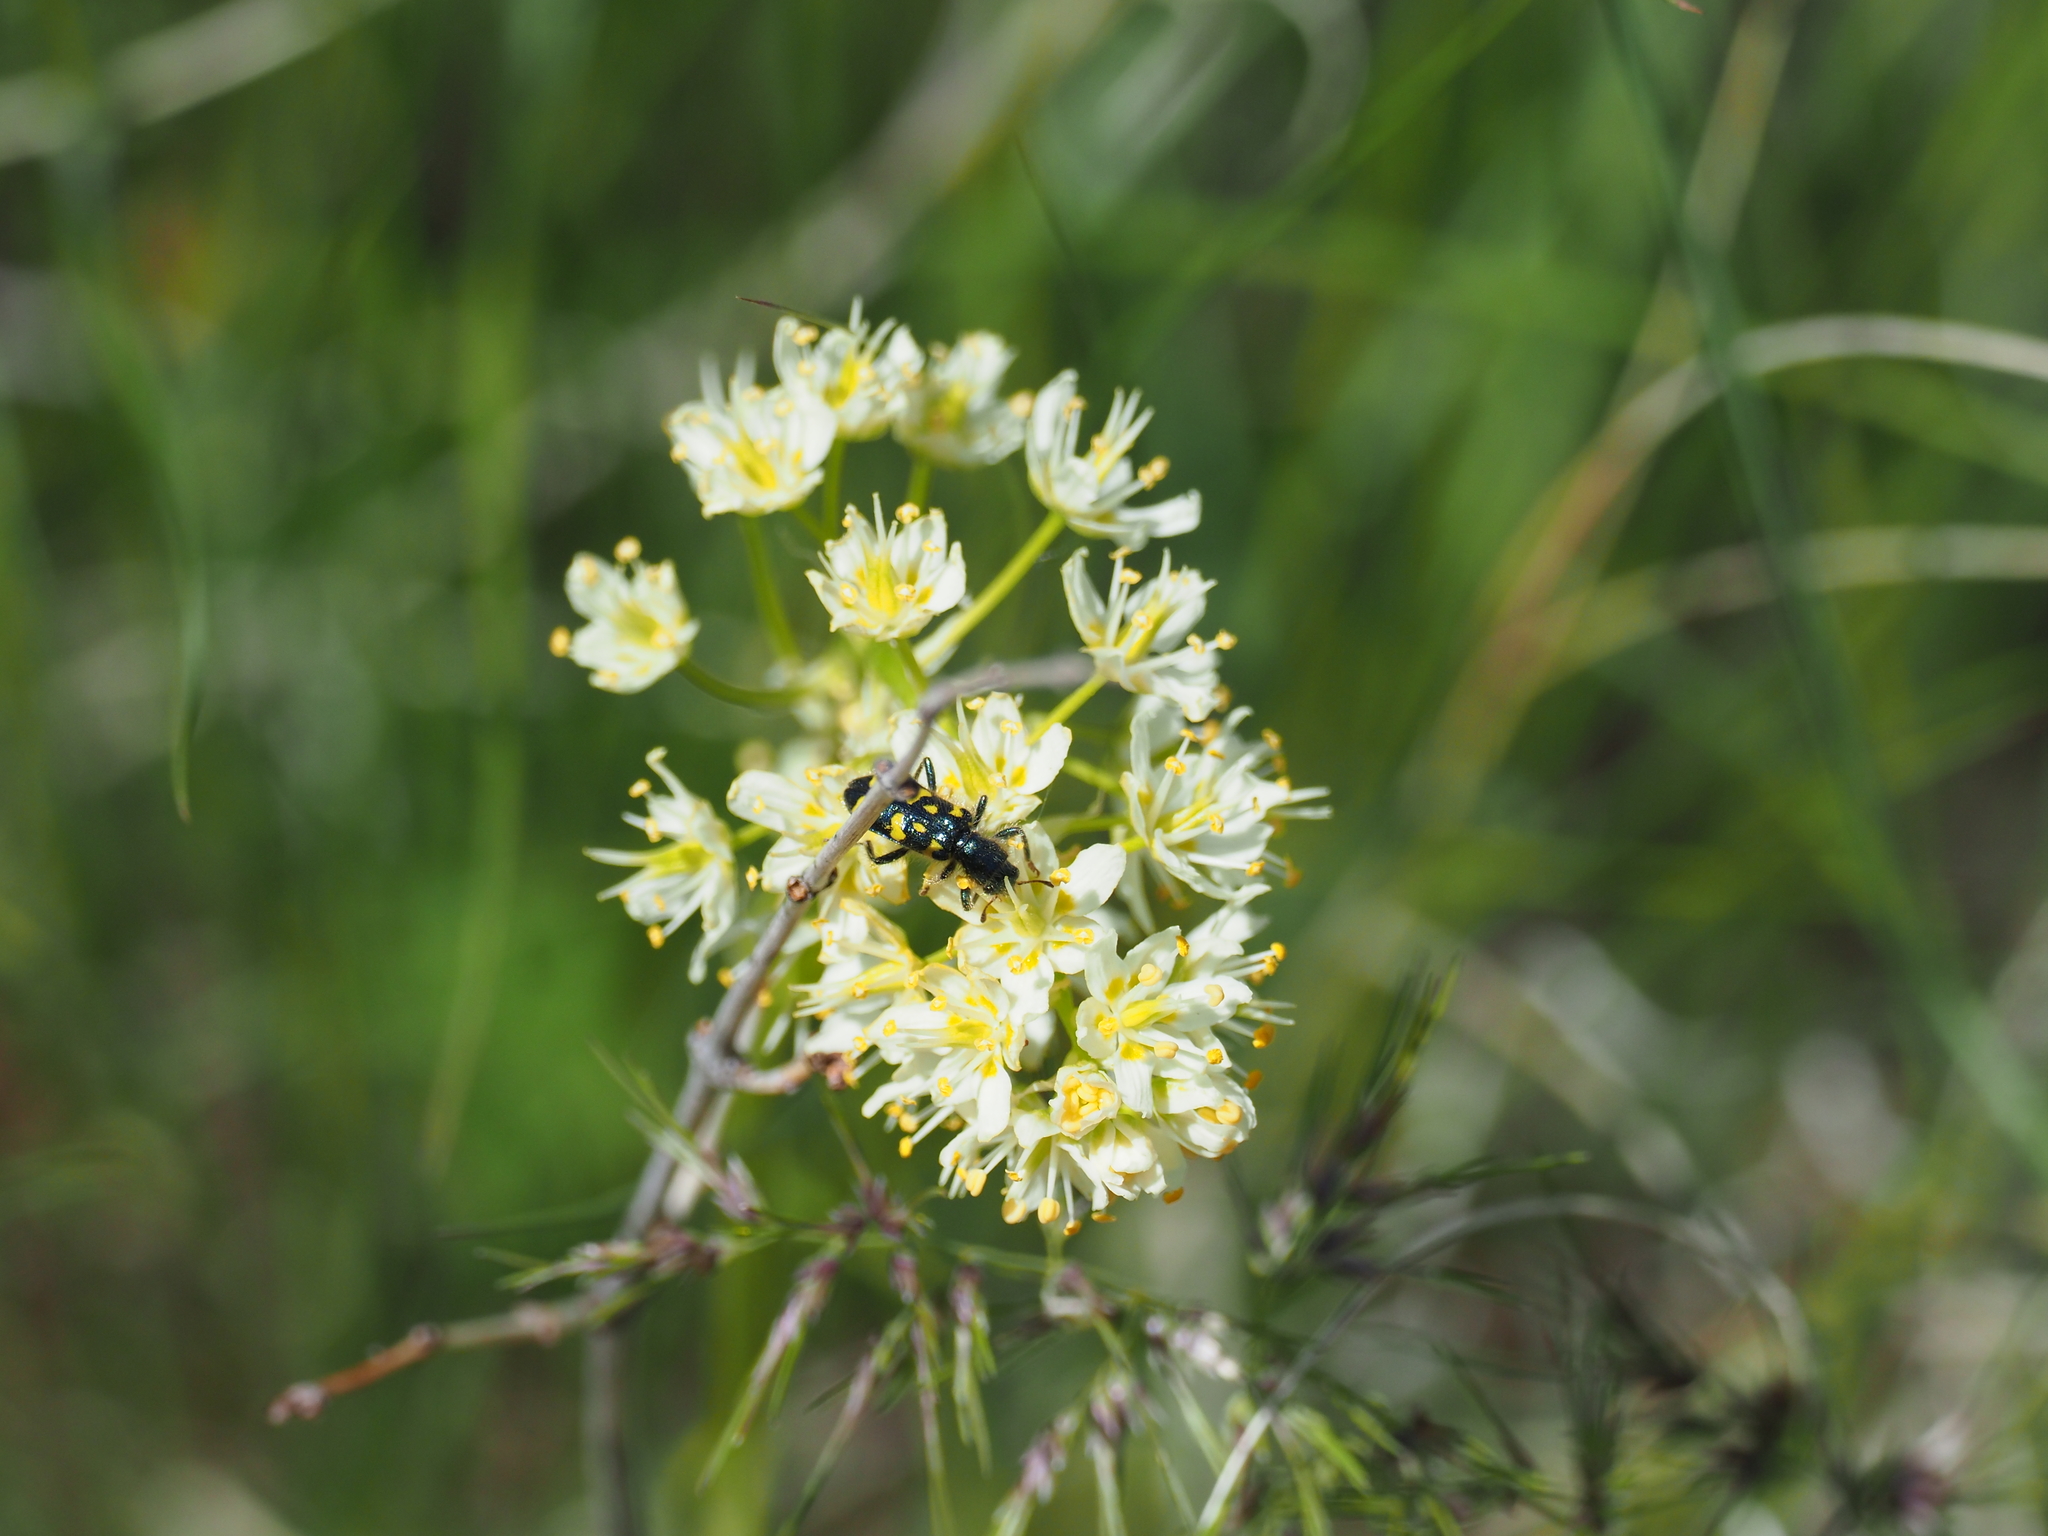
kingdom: Animalia
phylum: Arthropoda
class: Insecta
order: Coleoptera
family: Cleridae
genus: Trichodes
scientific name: Trichodes ornatus
